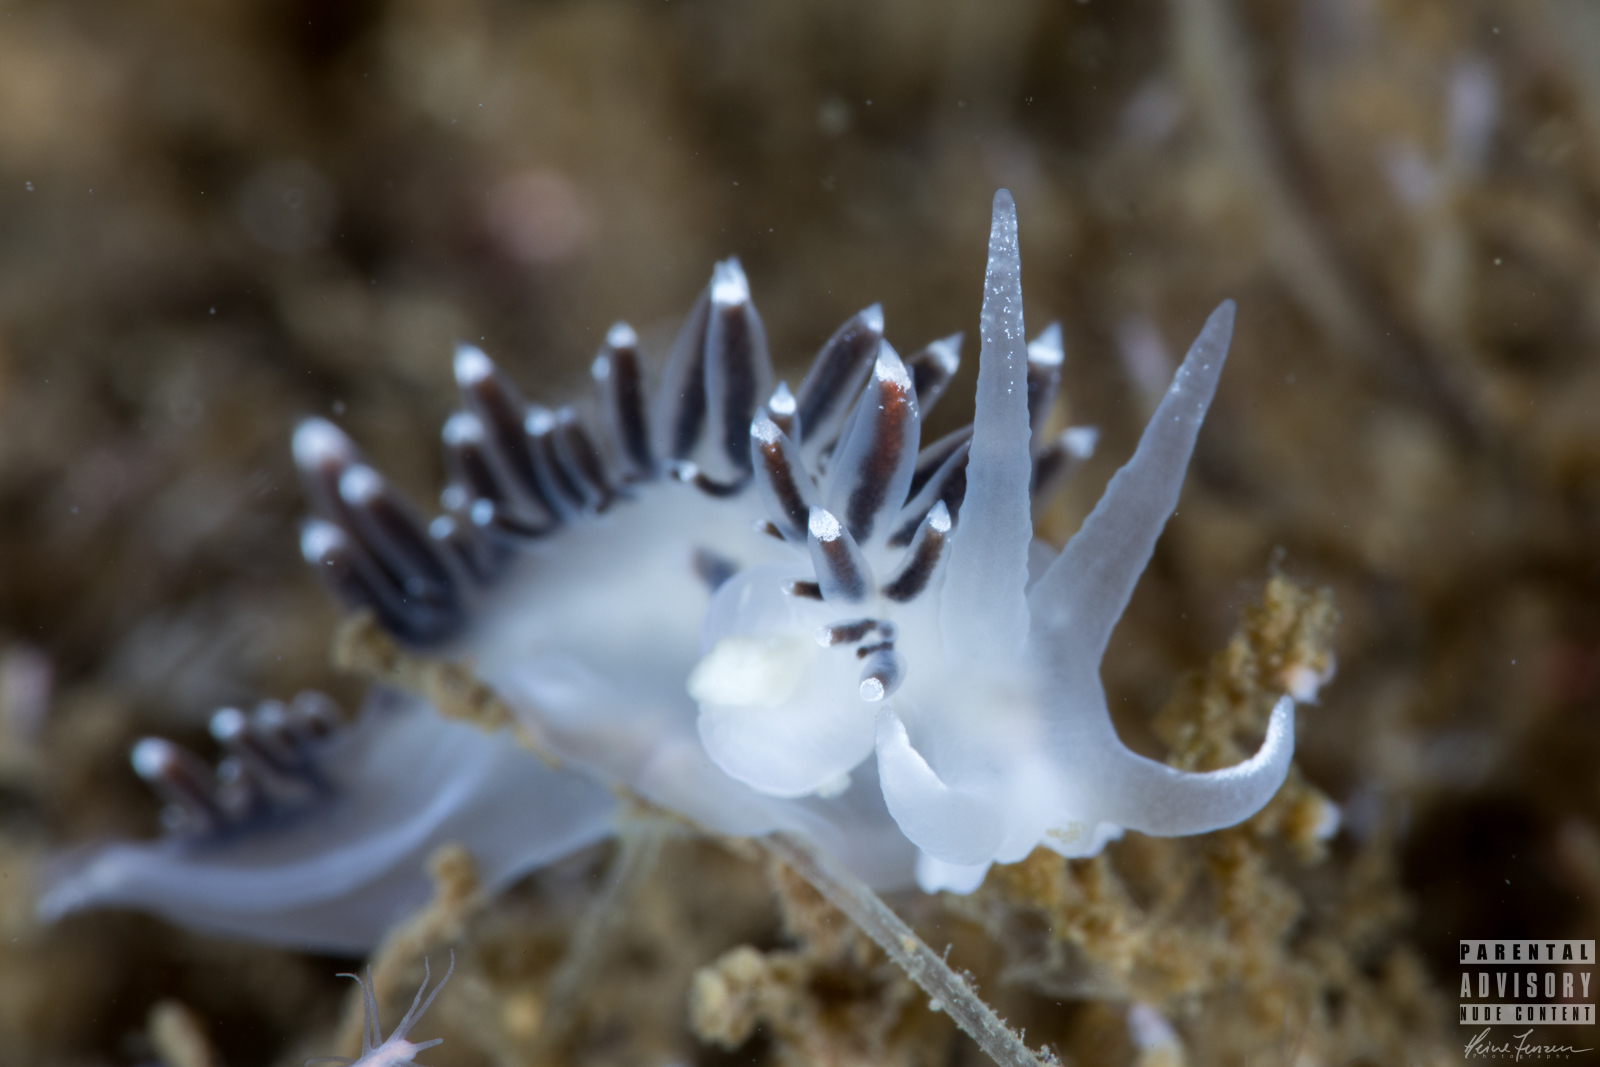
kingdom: Animalia
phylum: Mollusca
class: Gastropoda
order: Nudibranchia
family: Coryphellidae
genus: Coryphella
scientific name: Coryphella browni
